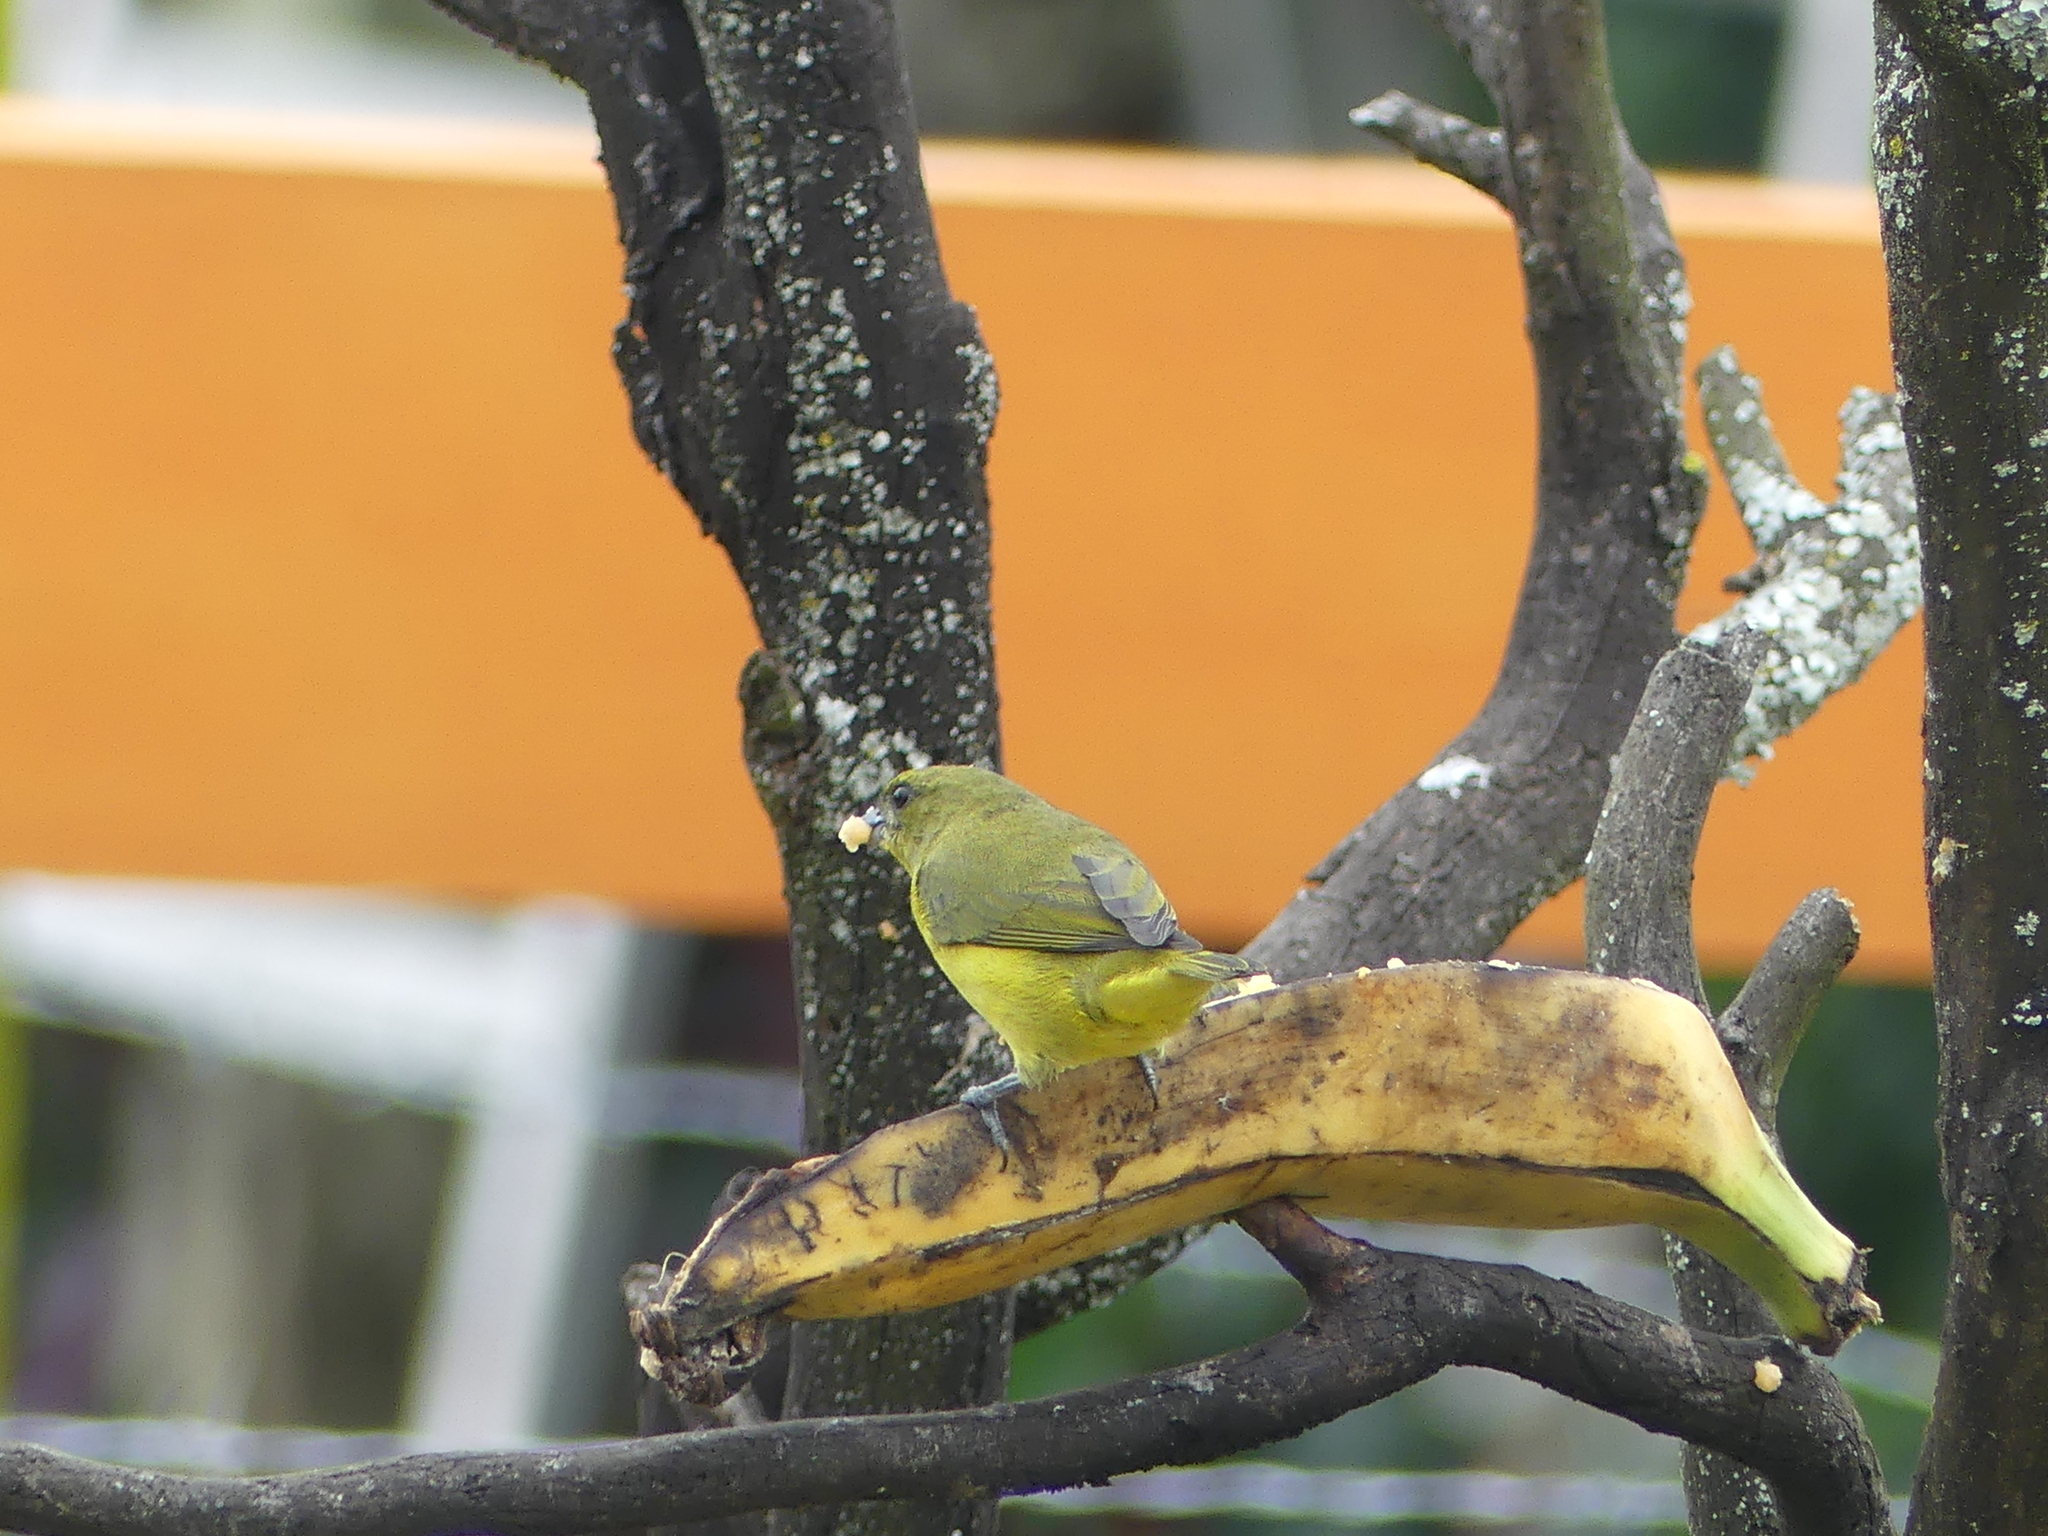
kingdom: Animalia
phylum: Chordata
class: Aves
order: Passeriformes
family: Fringillidae
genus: Euphonia
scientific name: Euphonia laniirostris
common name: Thick-billed euphonia
